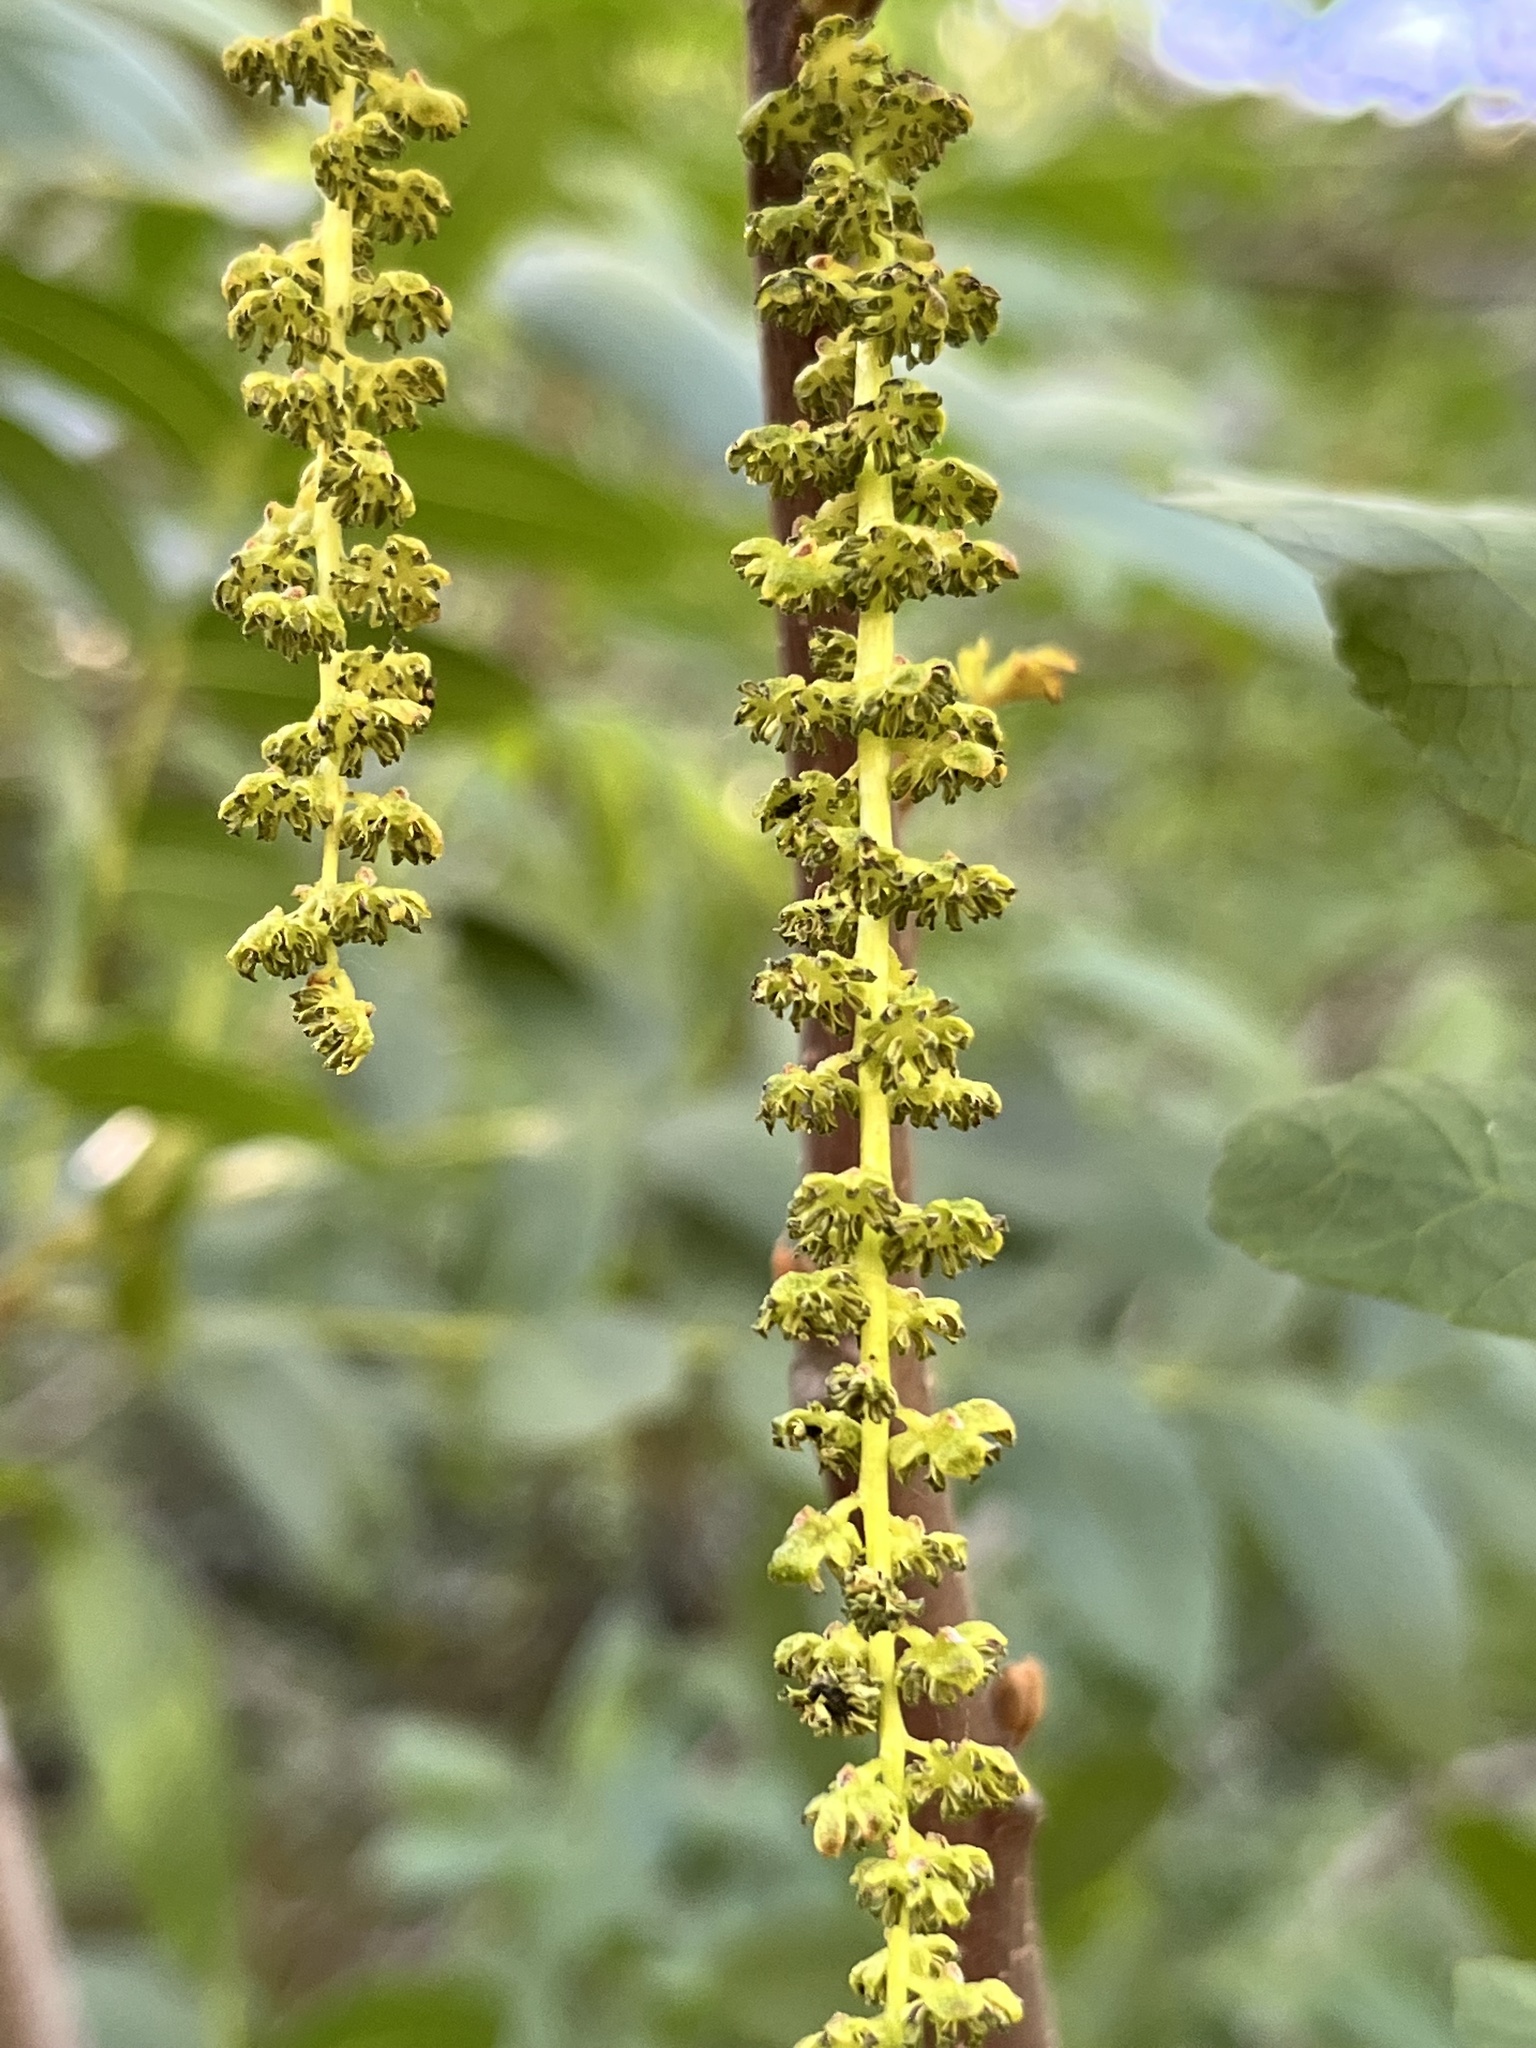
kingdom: Plantae
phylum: Tracheophyta
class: Magnoliopsida
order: Fagales
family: Juglandaceae
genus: Juglans
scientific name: Juglans californica
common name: Southern california black walnut
